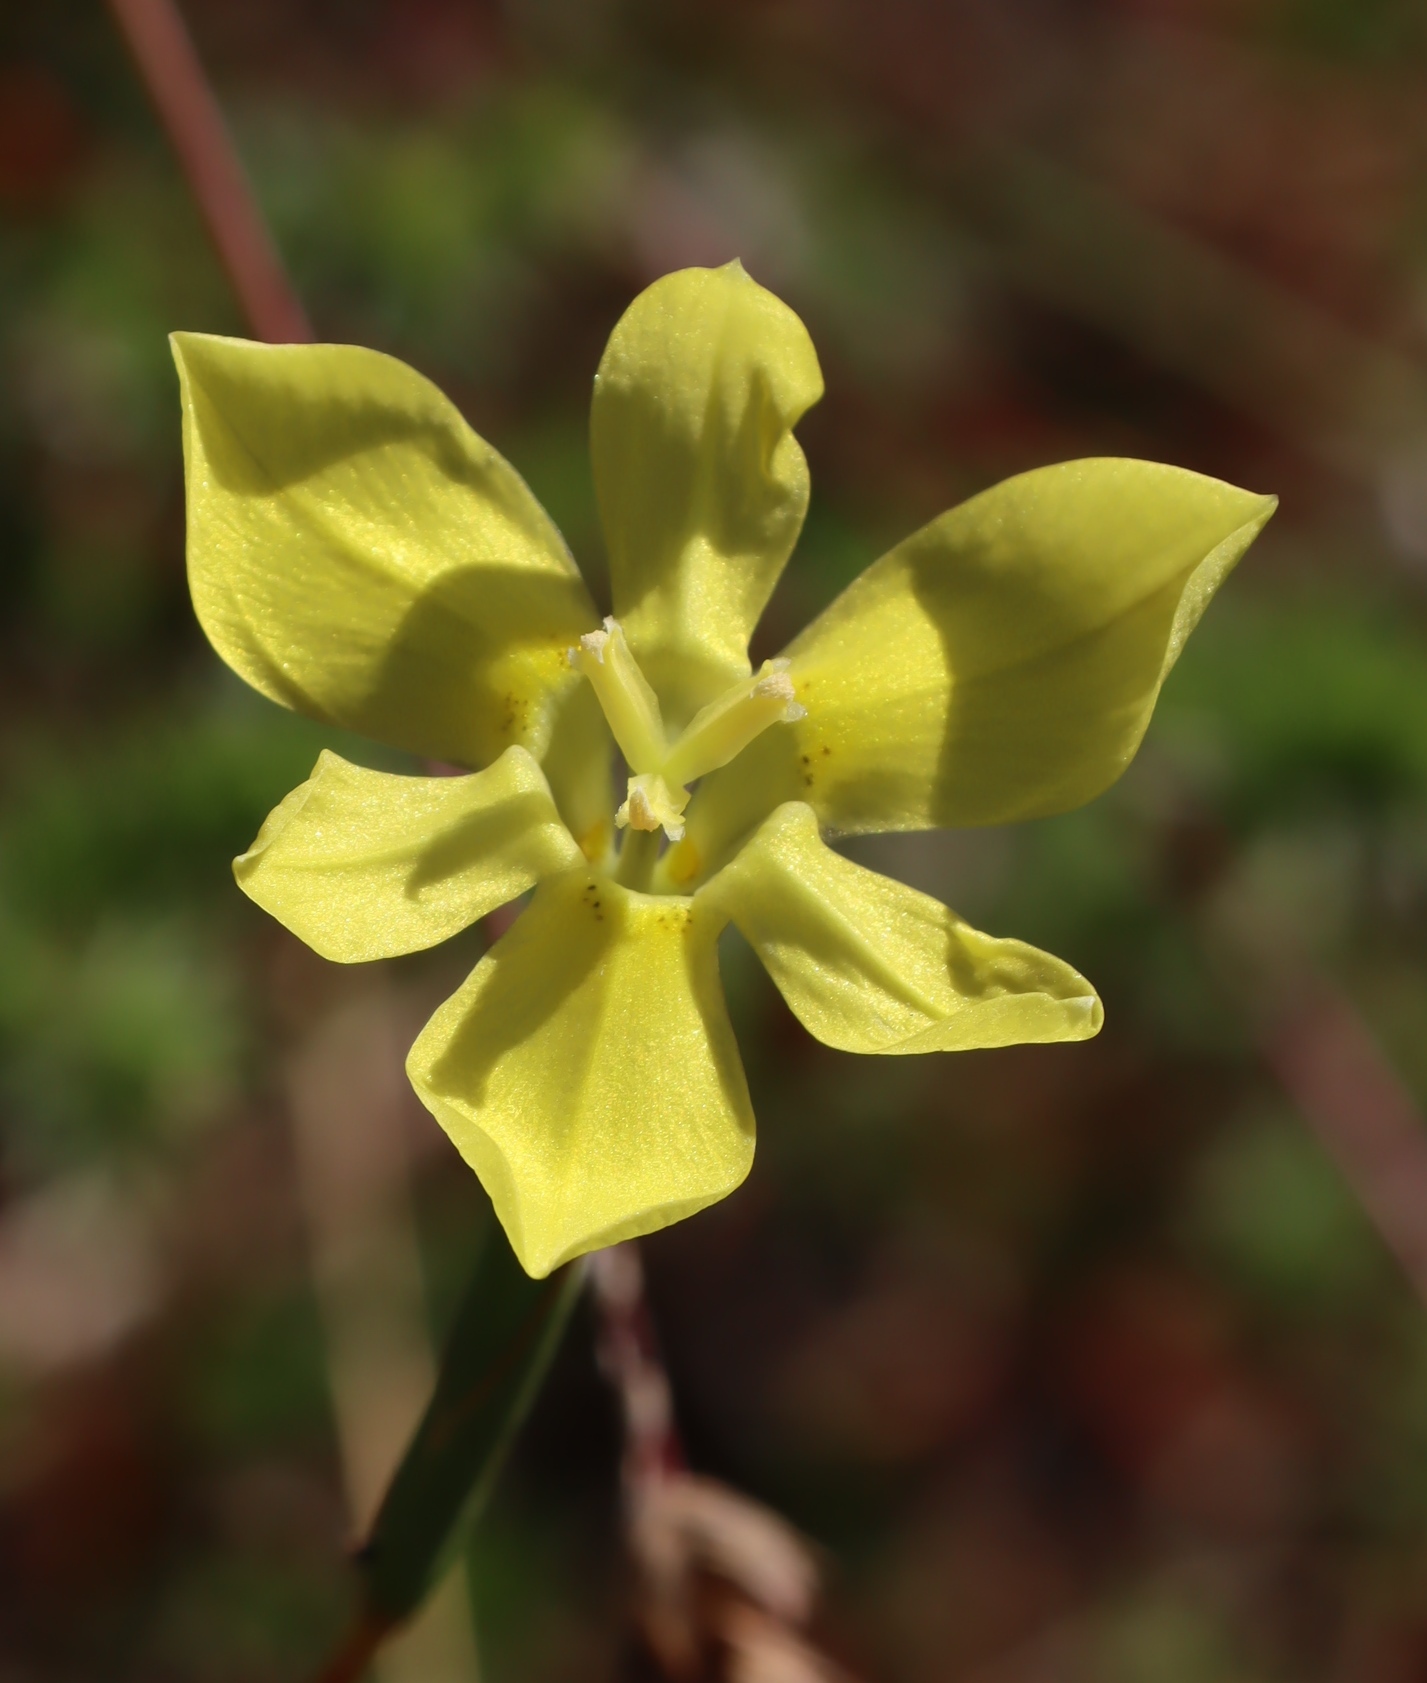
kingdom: Plantae
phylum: Tracheophyta
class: Liliopsida
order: Asparagales
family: Iridaceae
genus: Moraea
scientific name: Moraea elsiae
